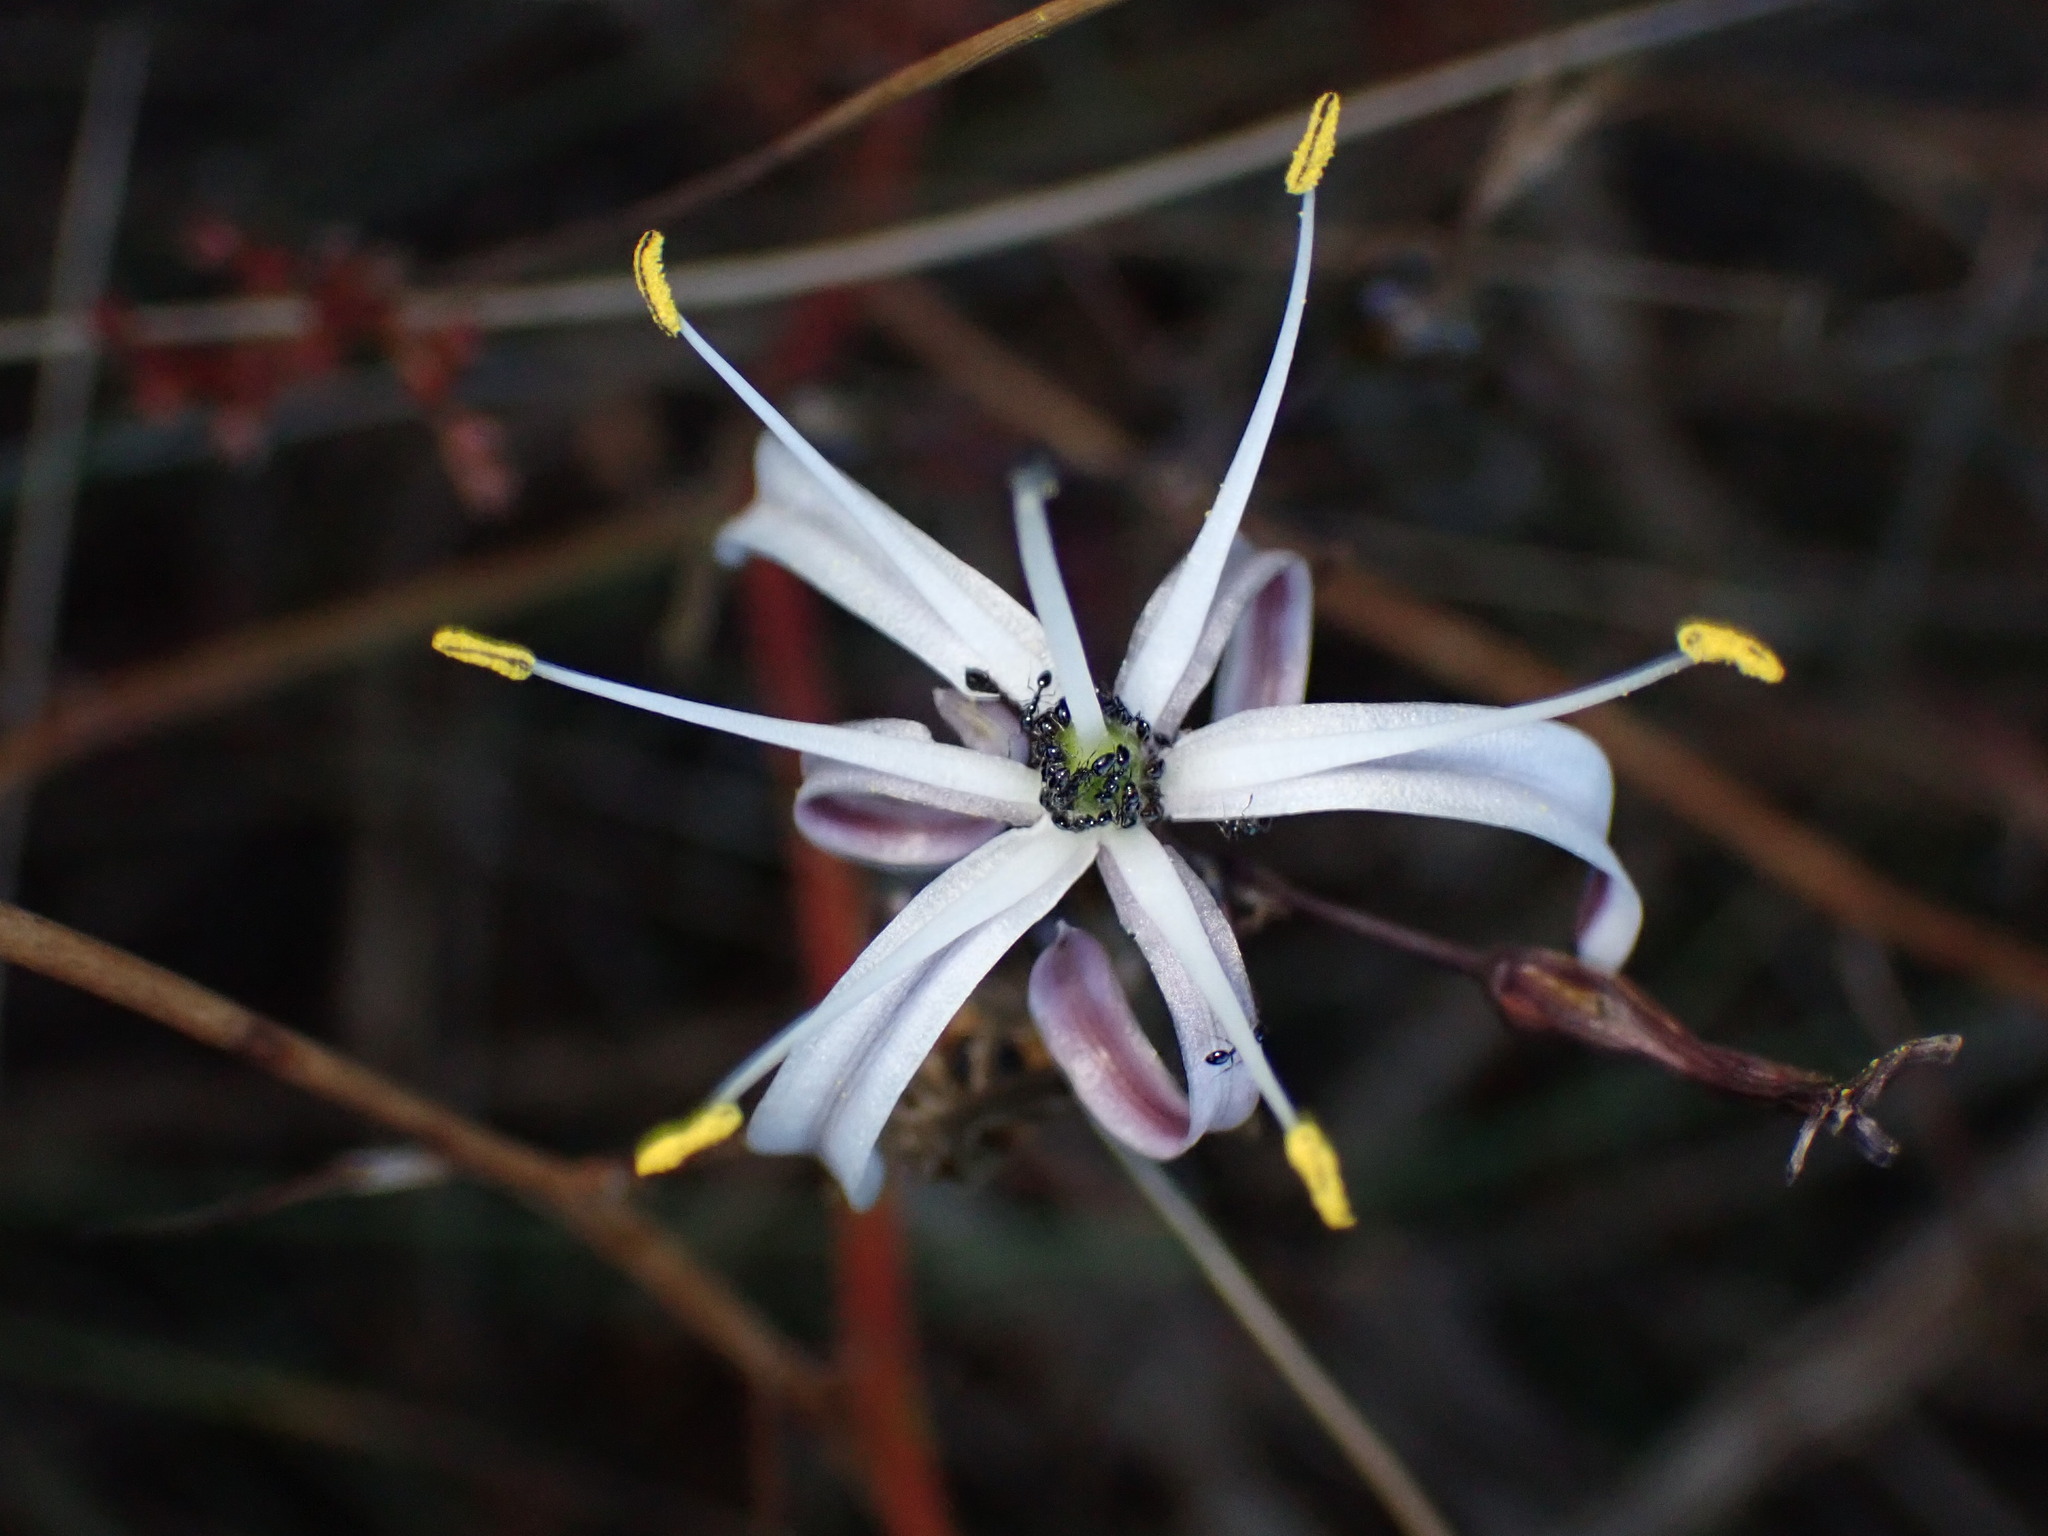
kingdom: Plantae
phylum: Tracheophyta
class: Liliopsida
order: Asparagales
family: Asparagaceae
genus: Chlorogalum
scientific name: Chlorogalum pomeridianum
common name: Amole
